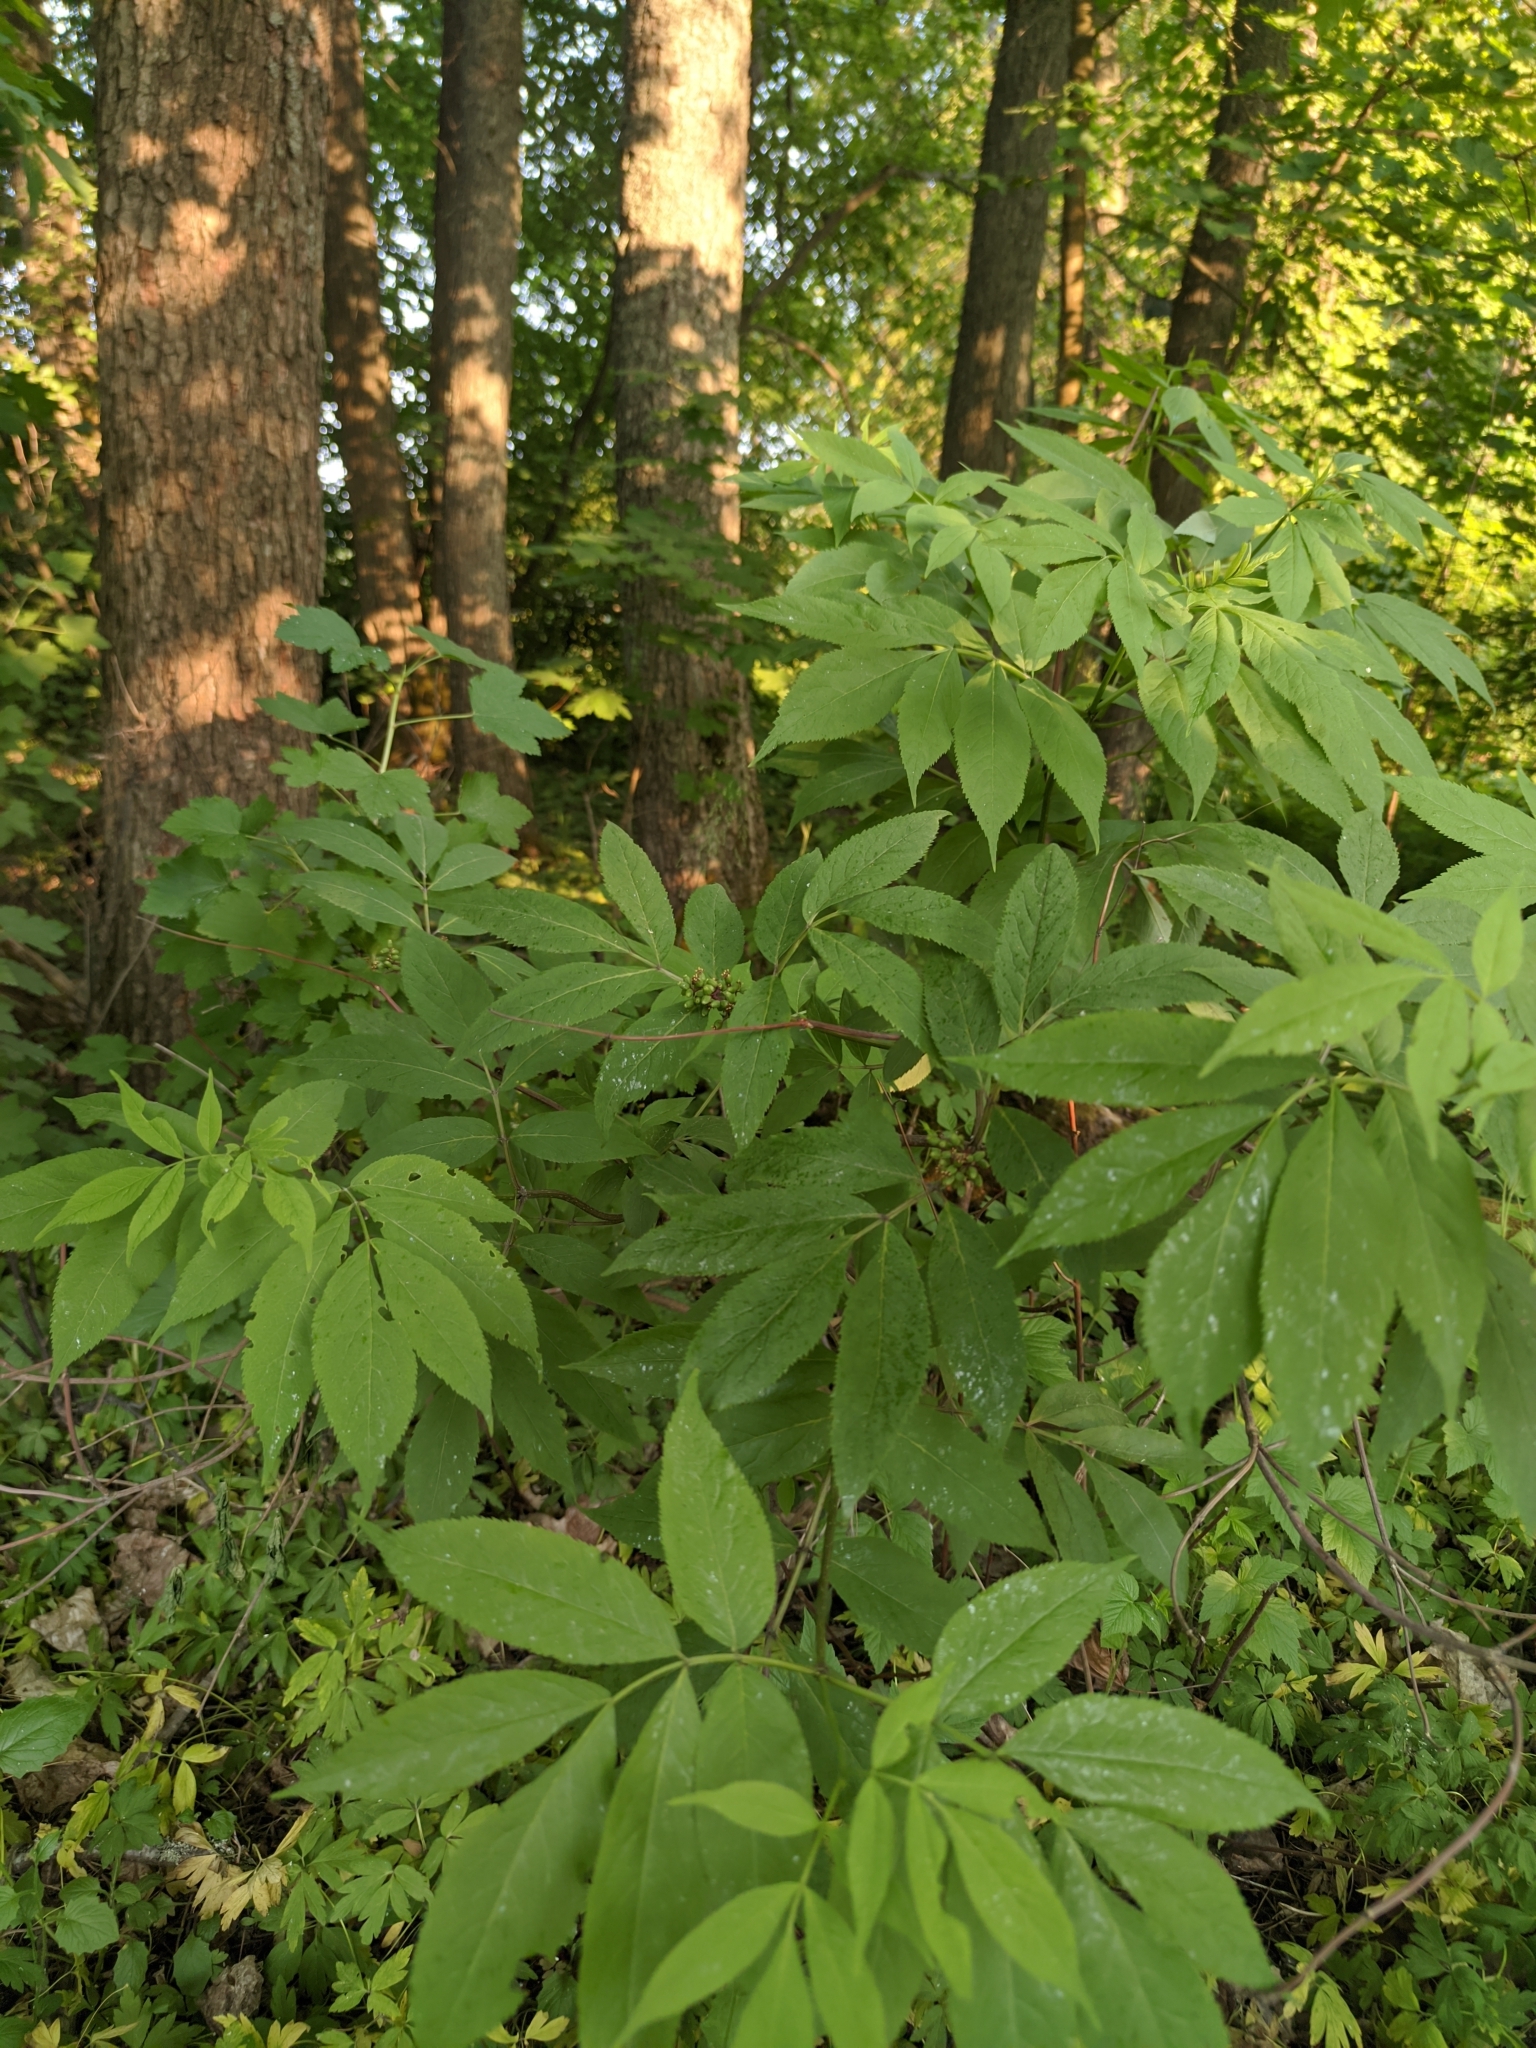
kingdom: Plantae
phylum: Tracheophyta
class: Magnoliopsida
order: Dipsacales
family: Viburnaceae
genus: Sambucus
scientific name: Sambucus racemosa
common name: Red-berried elder
